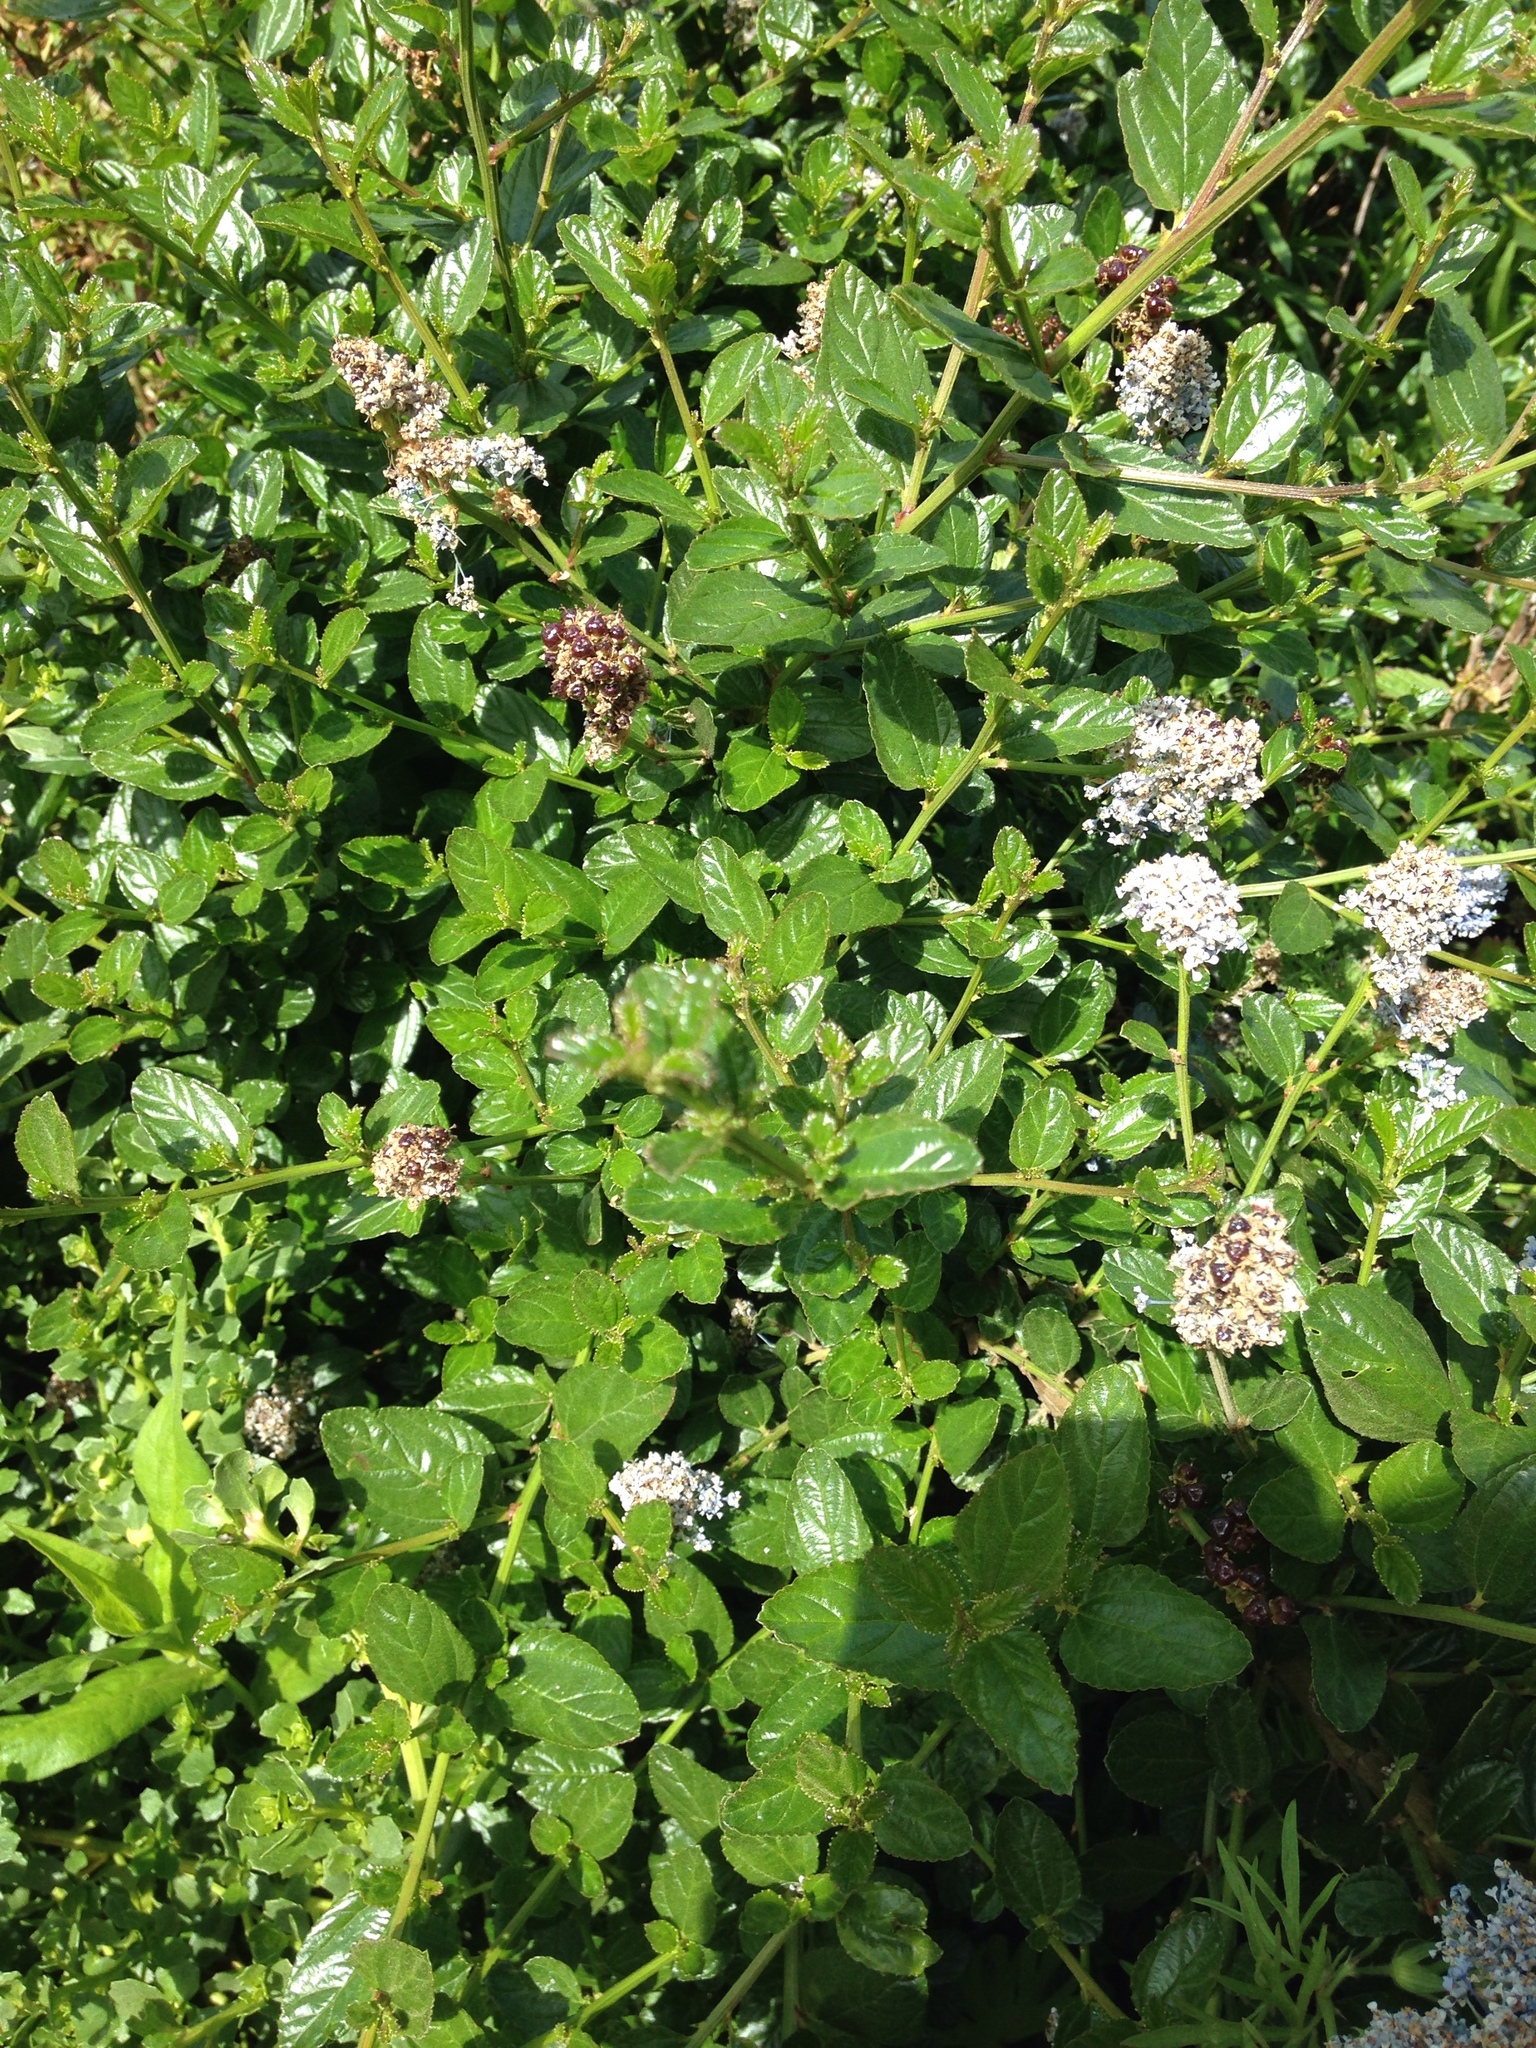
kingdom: Plantae
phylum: Tracheophyta
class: Magnoliopsida
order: Rosales
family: Rhamnaceae
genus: Ceanothus
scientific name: Ceanothus griseus
